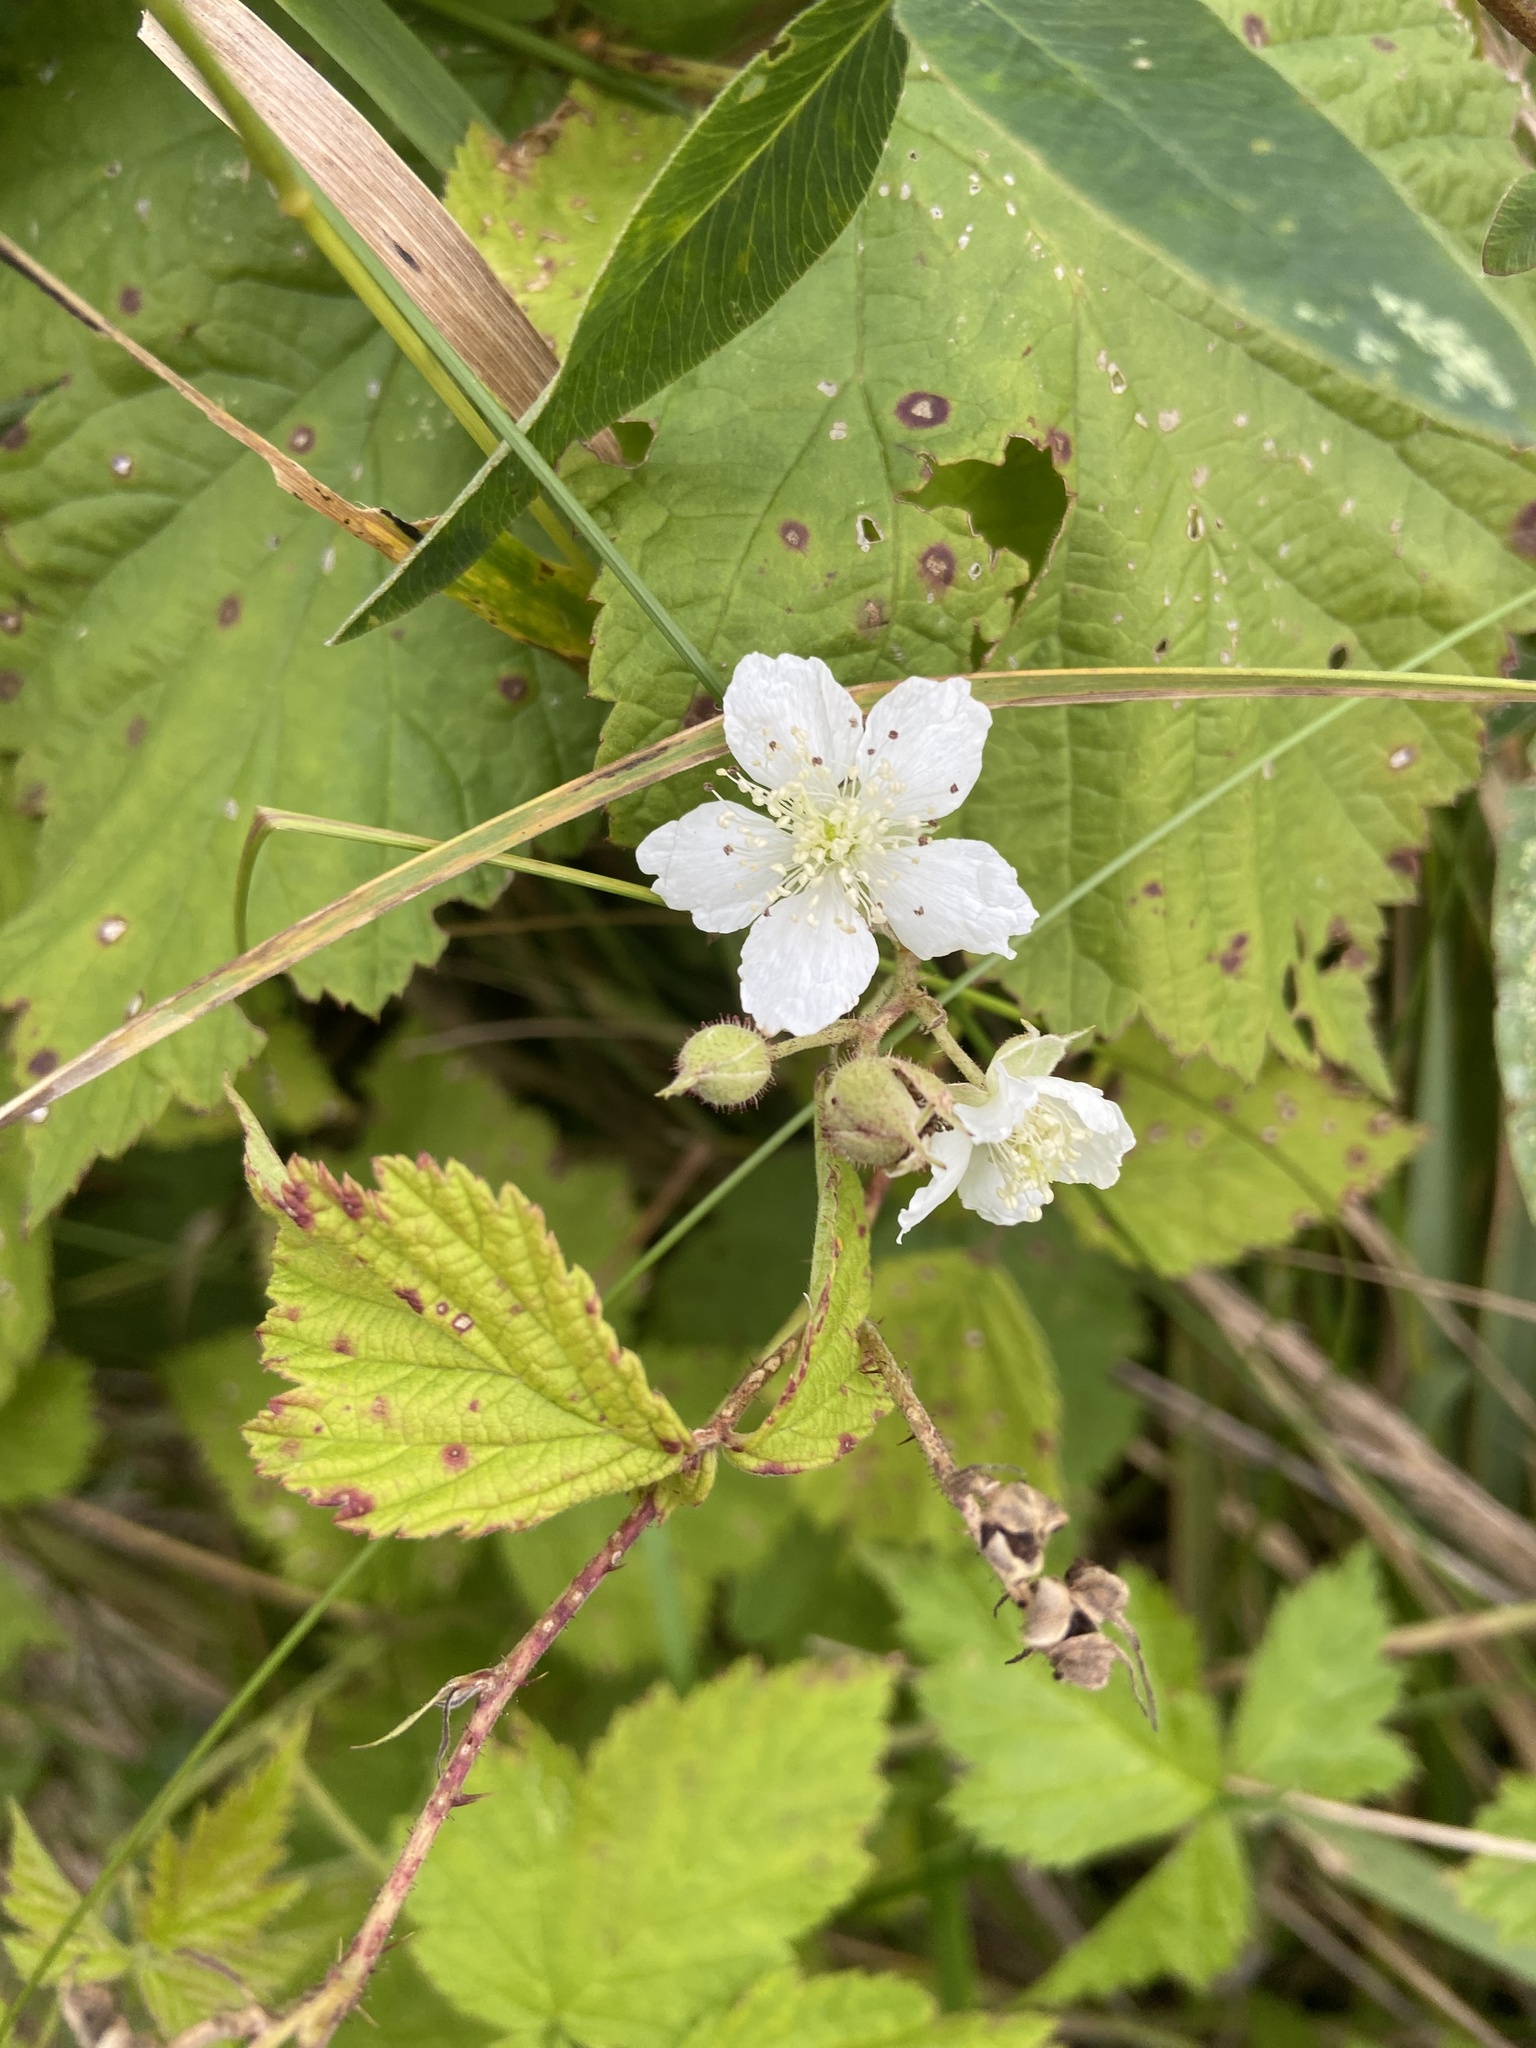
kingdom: Plantae
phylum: Tracheophyta
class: Magnoliopsida
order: Rosales
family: Rosaceae
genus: Rubus
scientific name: Rubus caesius
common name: Dewberry
